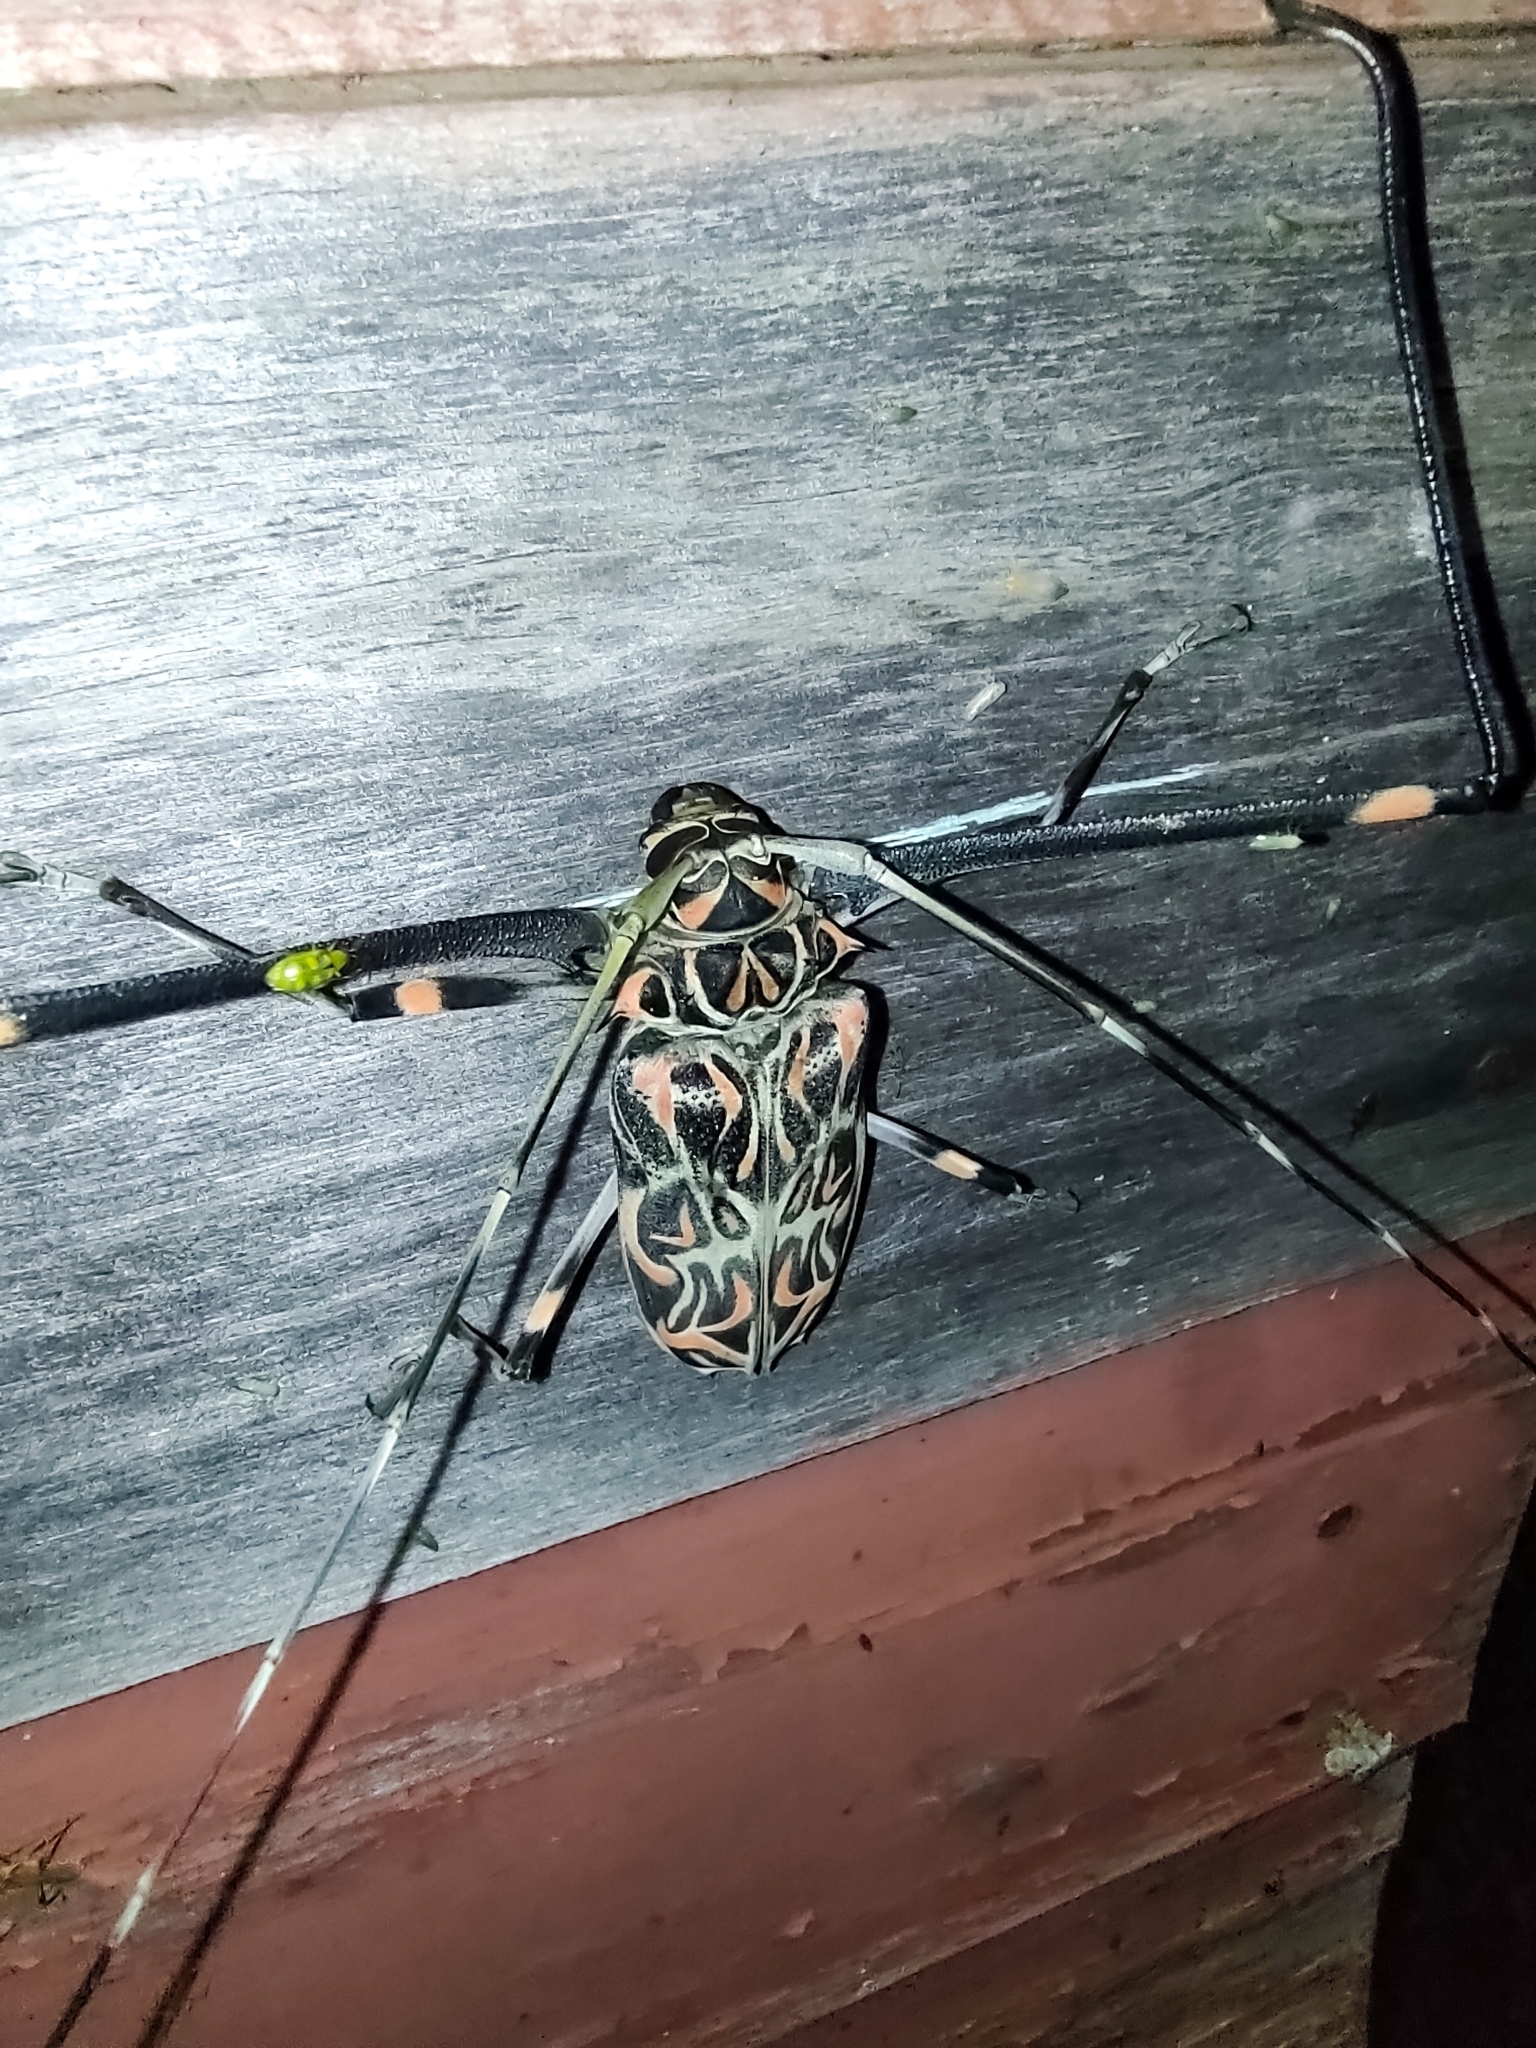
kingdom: Animalia
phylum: Arthropoda
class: Insecta
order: Coleoptera
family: Cerambycidae
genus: Acrocinus
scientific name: Acrocinus longimanus
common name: Arlequin
